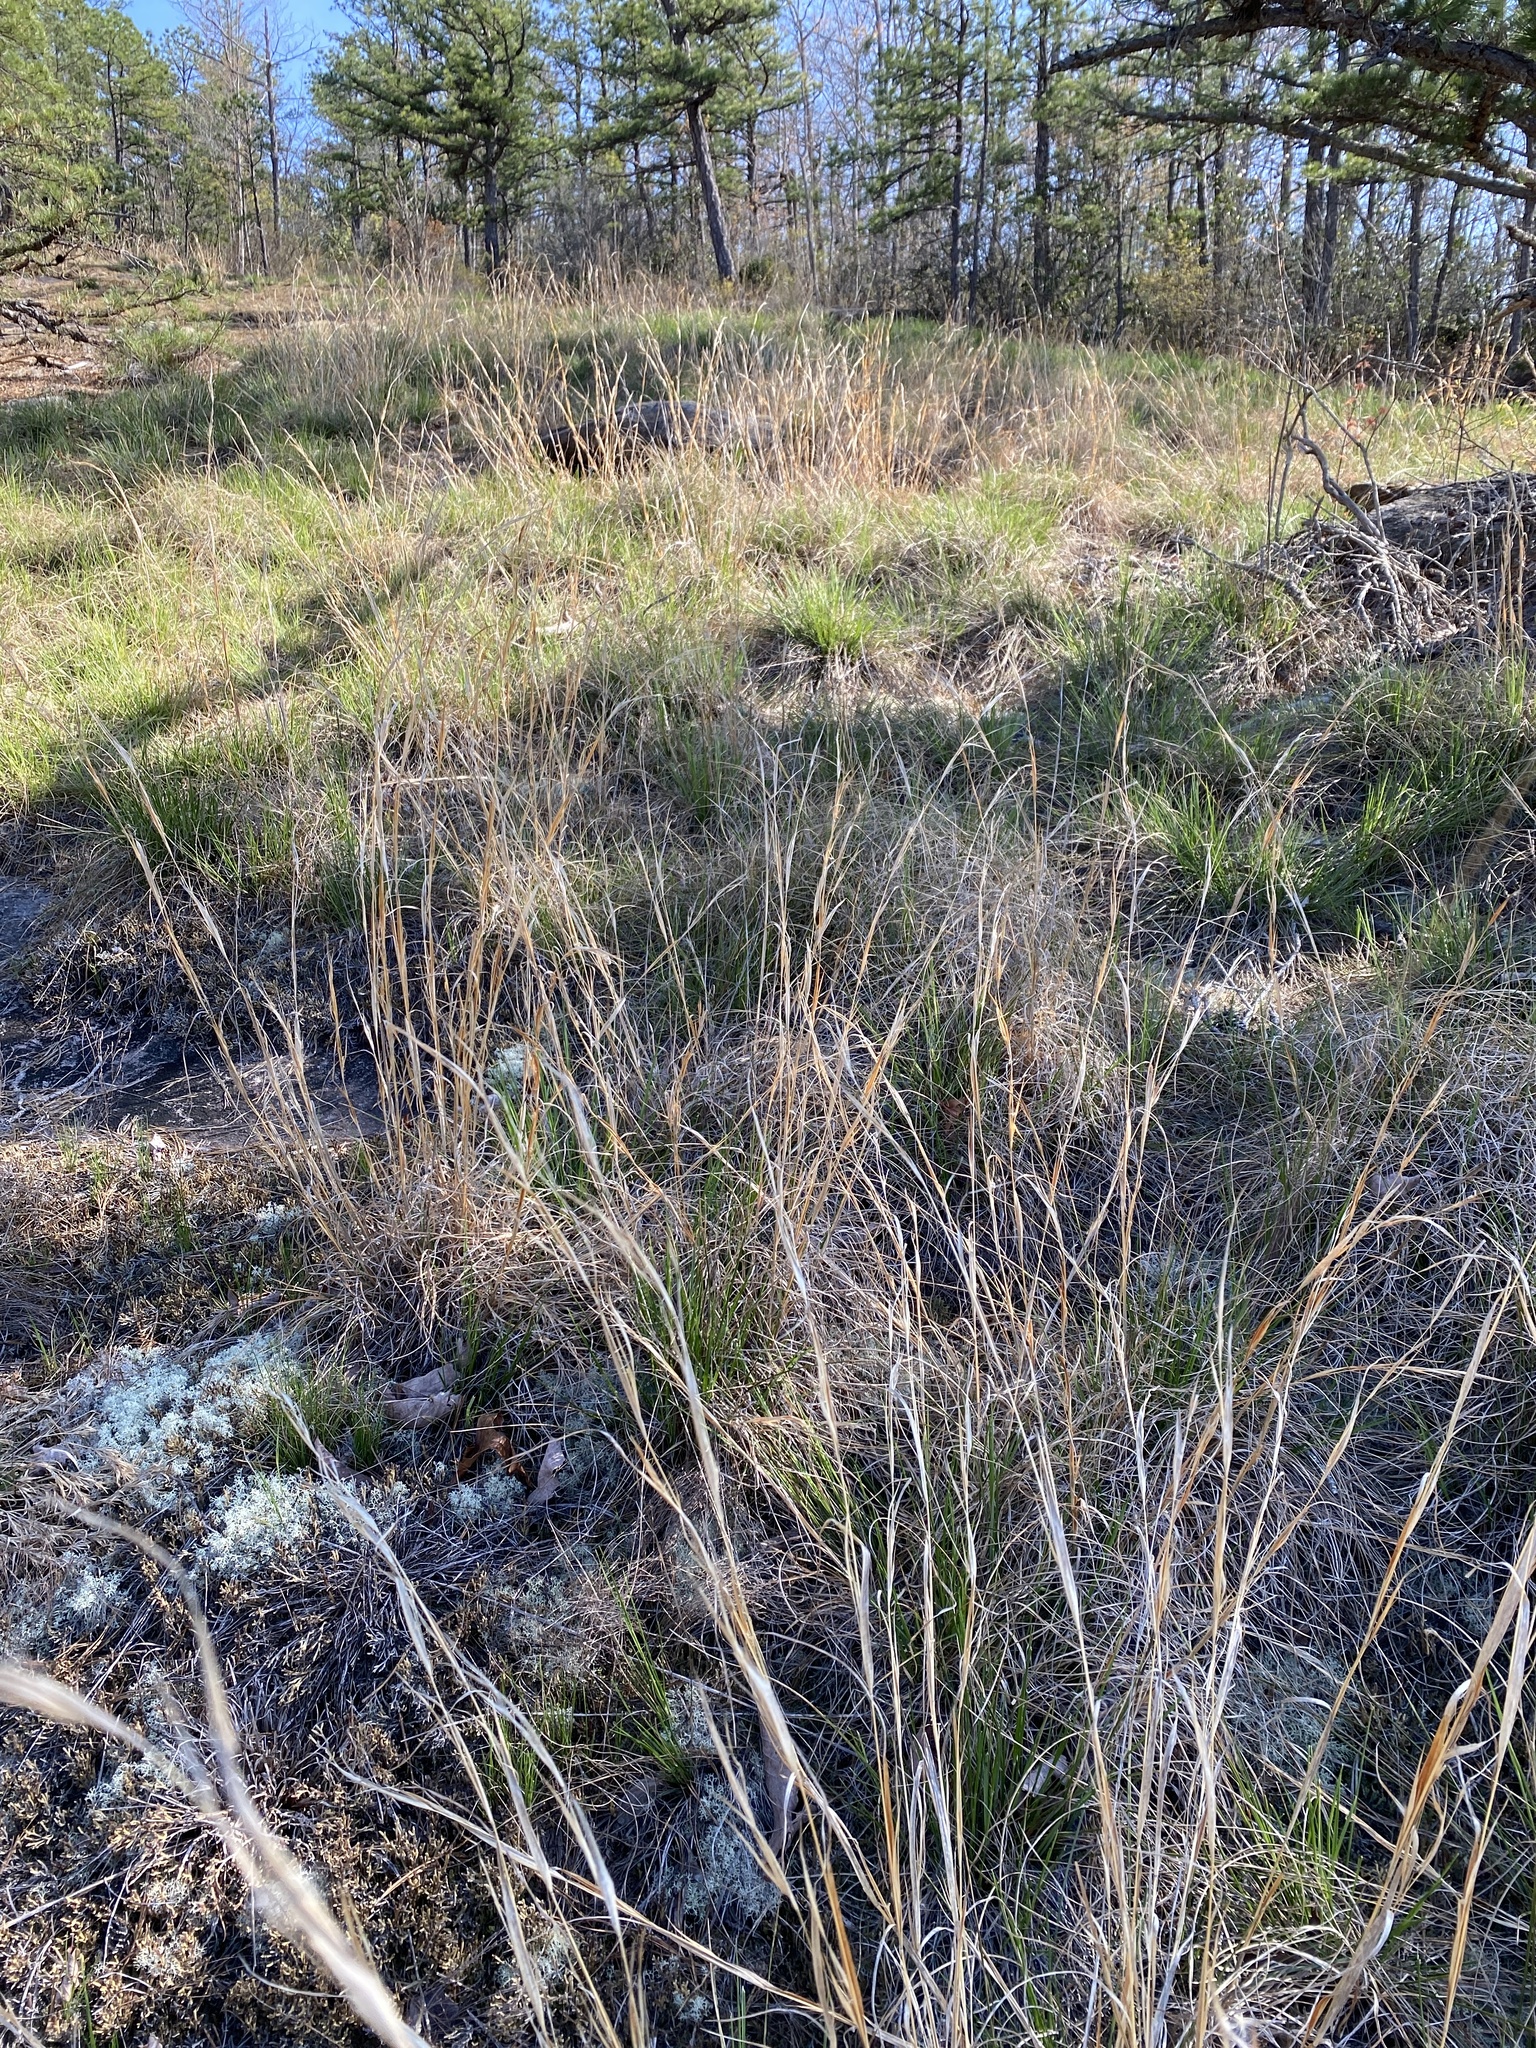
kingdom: Plantae
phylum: Tracheophyta
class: Liliopsida
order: Poales
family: Poaceae
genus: Andropogon
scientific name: Andropogon virginicus
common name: Broomsedge bluestem
